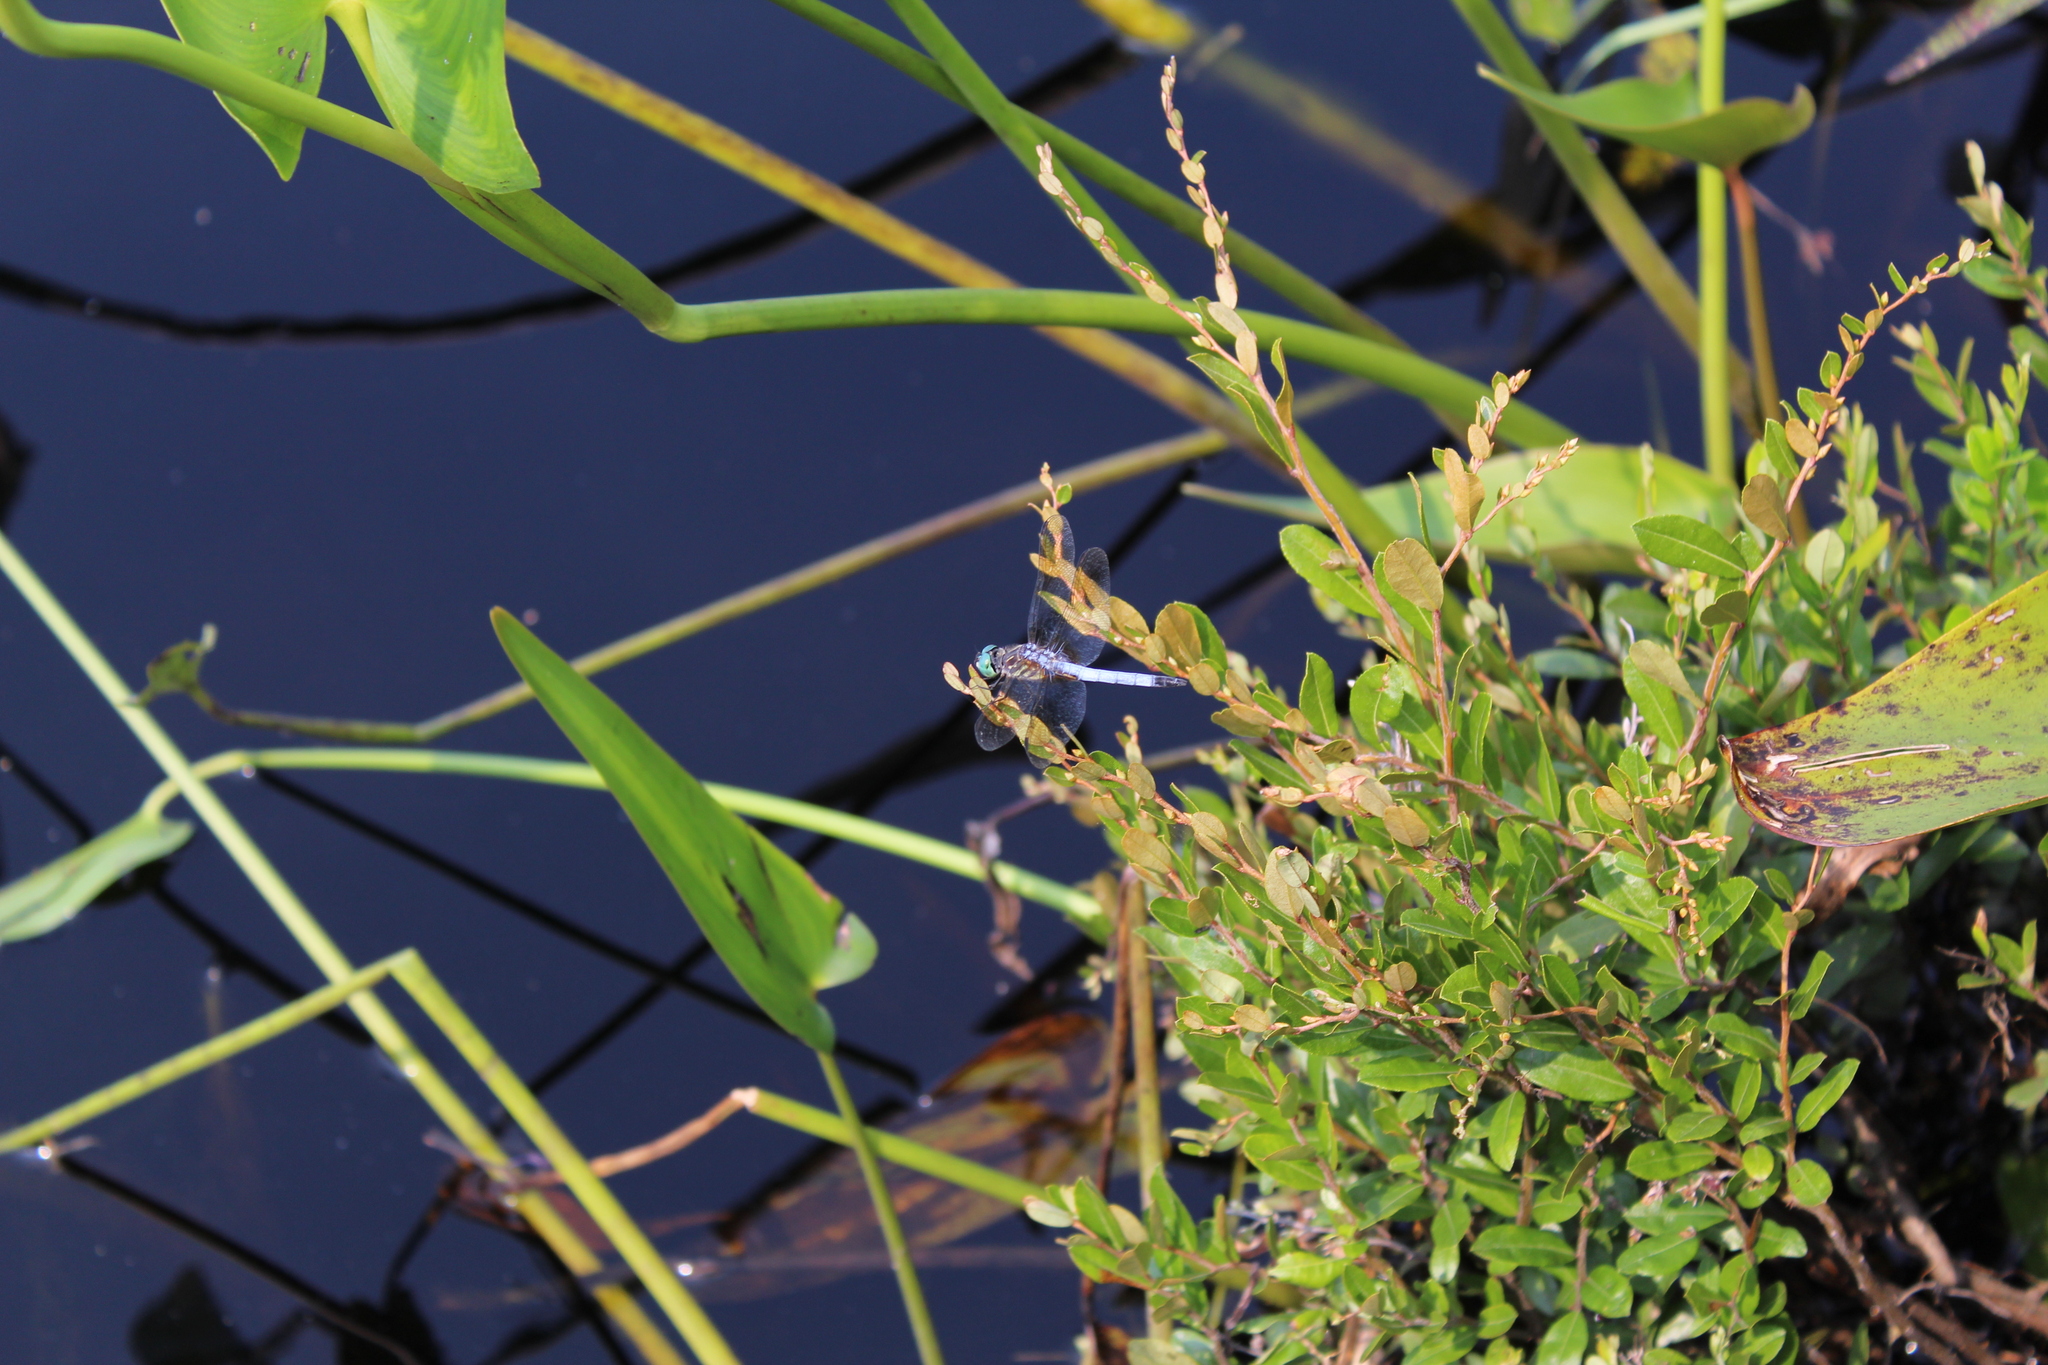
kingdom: Animalia
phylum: Arthropoda
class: Insecta
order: Odonata
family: Libellulidae
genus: Pachydiplax
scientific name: Pachydiplax longipennis
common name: Blue dasher
